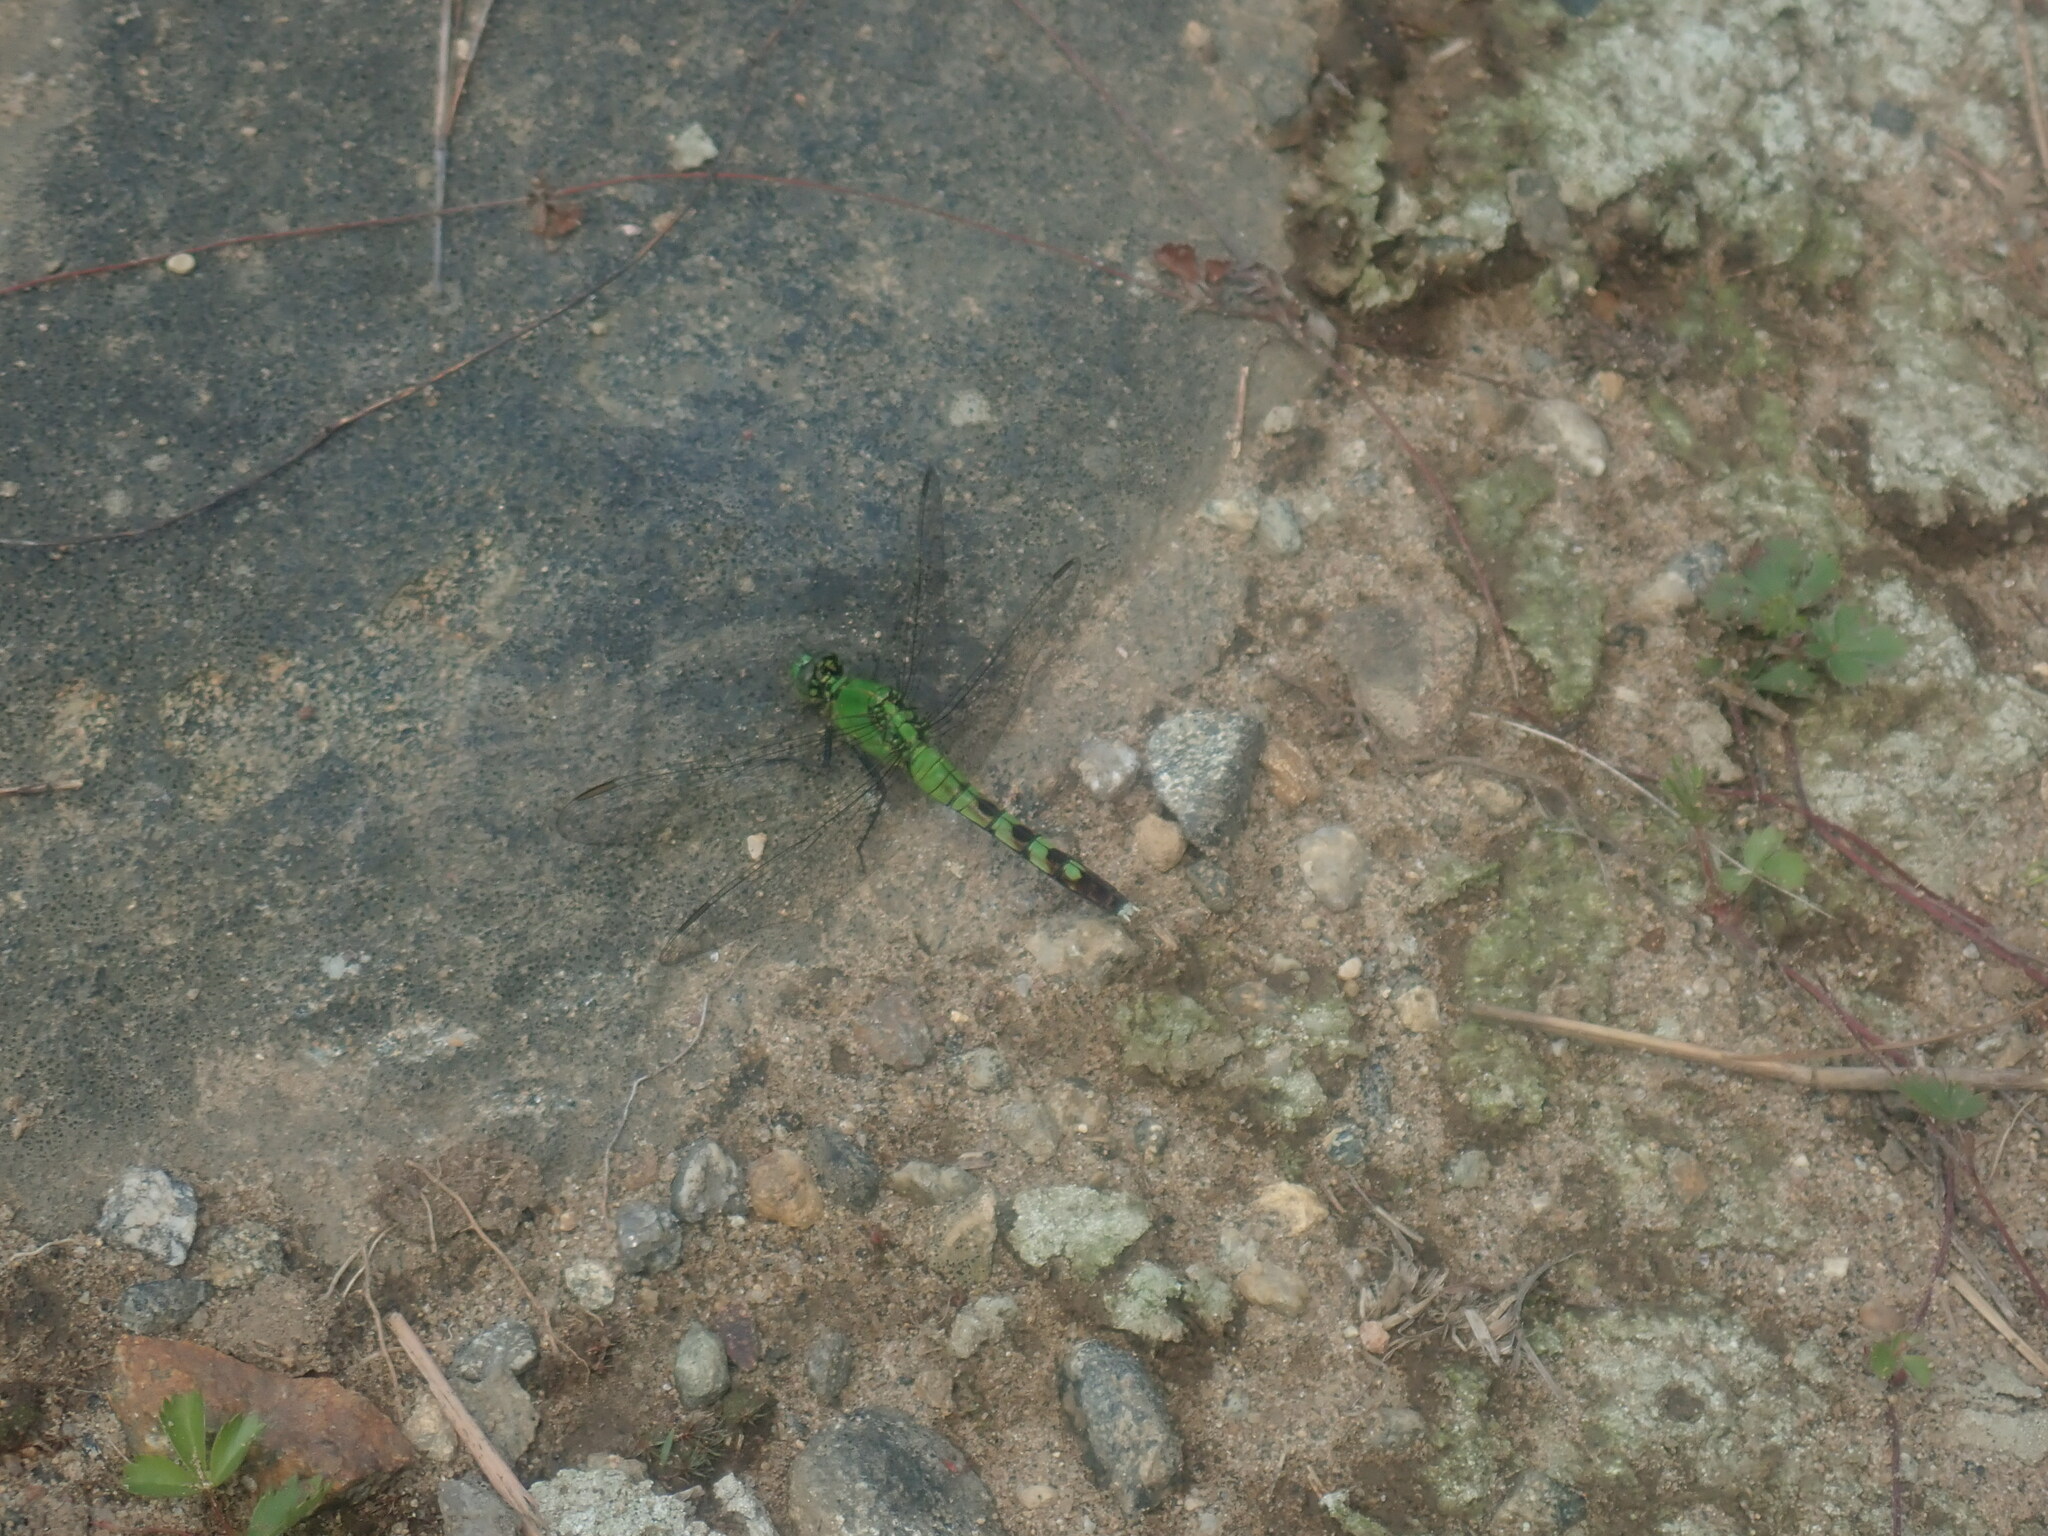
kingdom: Animalia
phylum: Arthropoda
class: Insecta
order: Odonata
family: Libellulidae
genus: Erythemis
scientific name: Erythemis simplicicollis
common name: Eastern pondhawk
